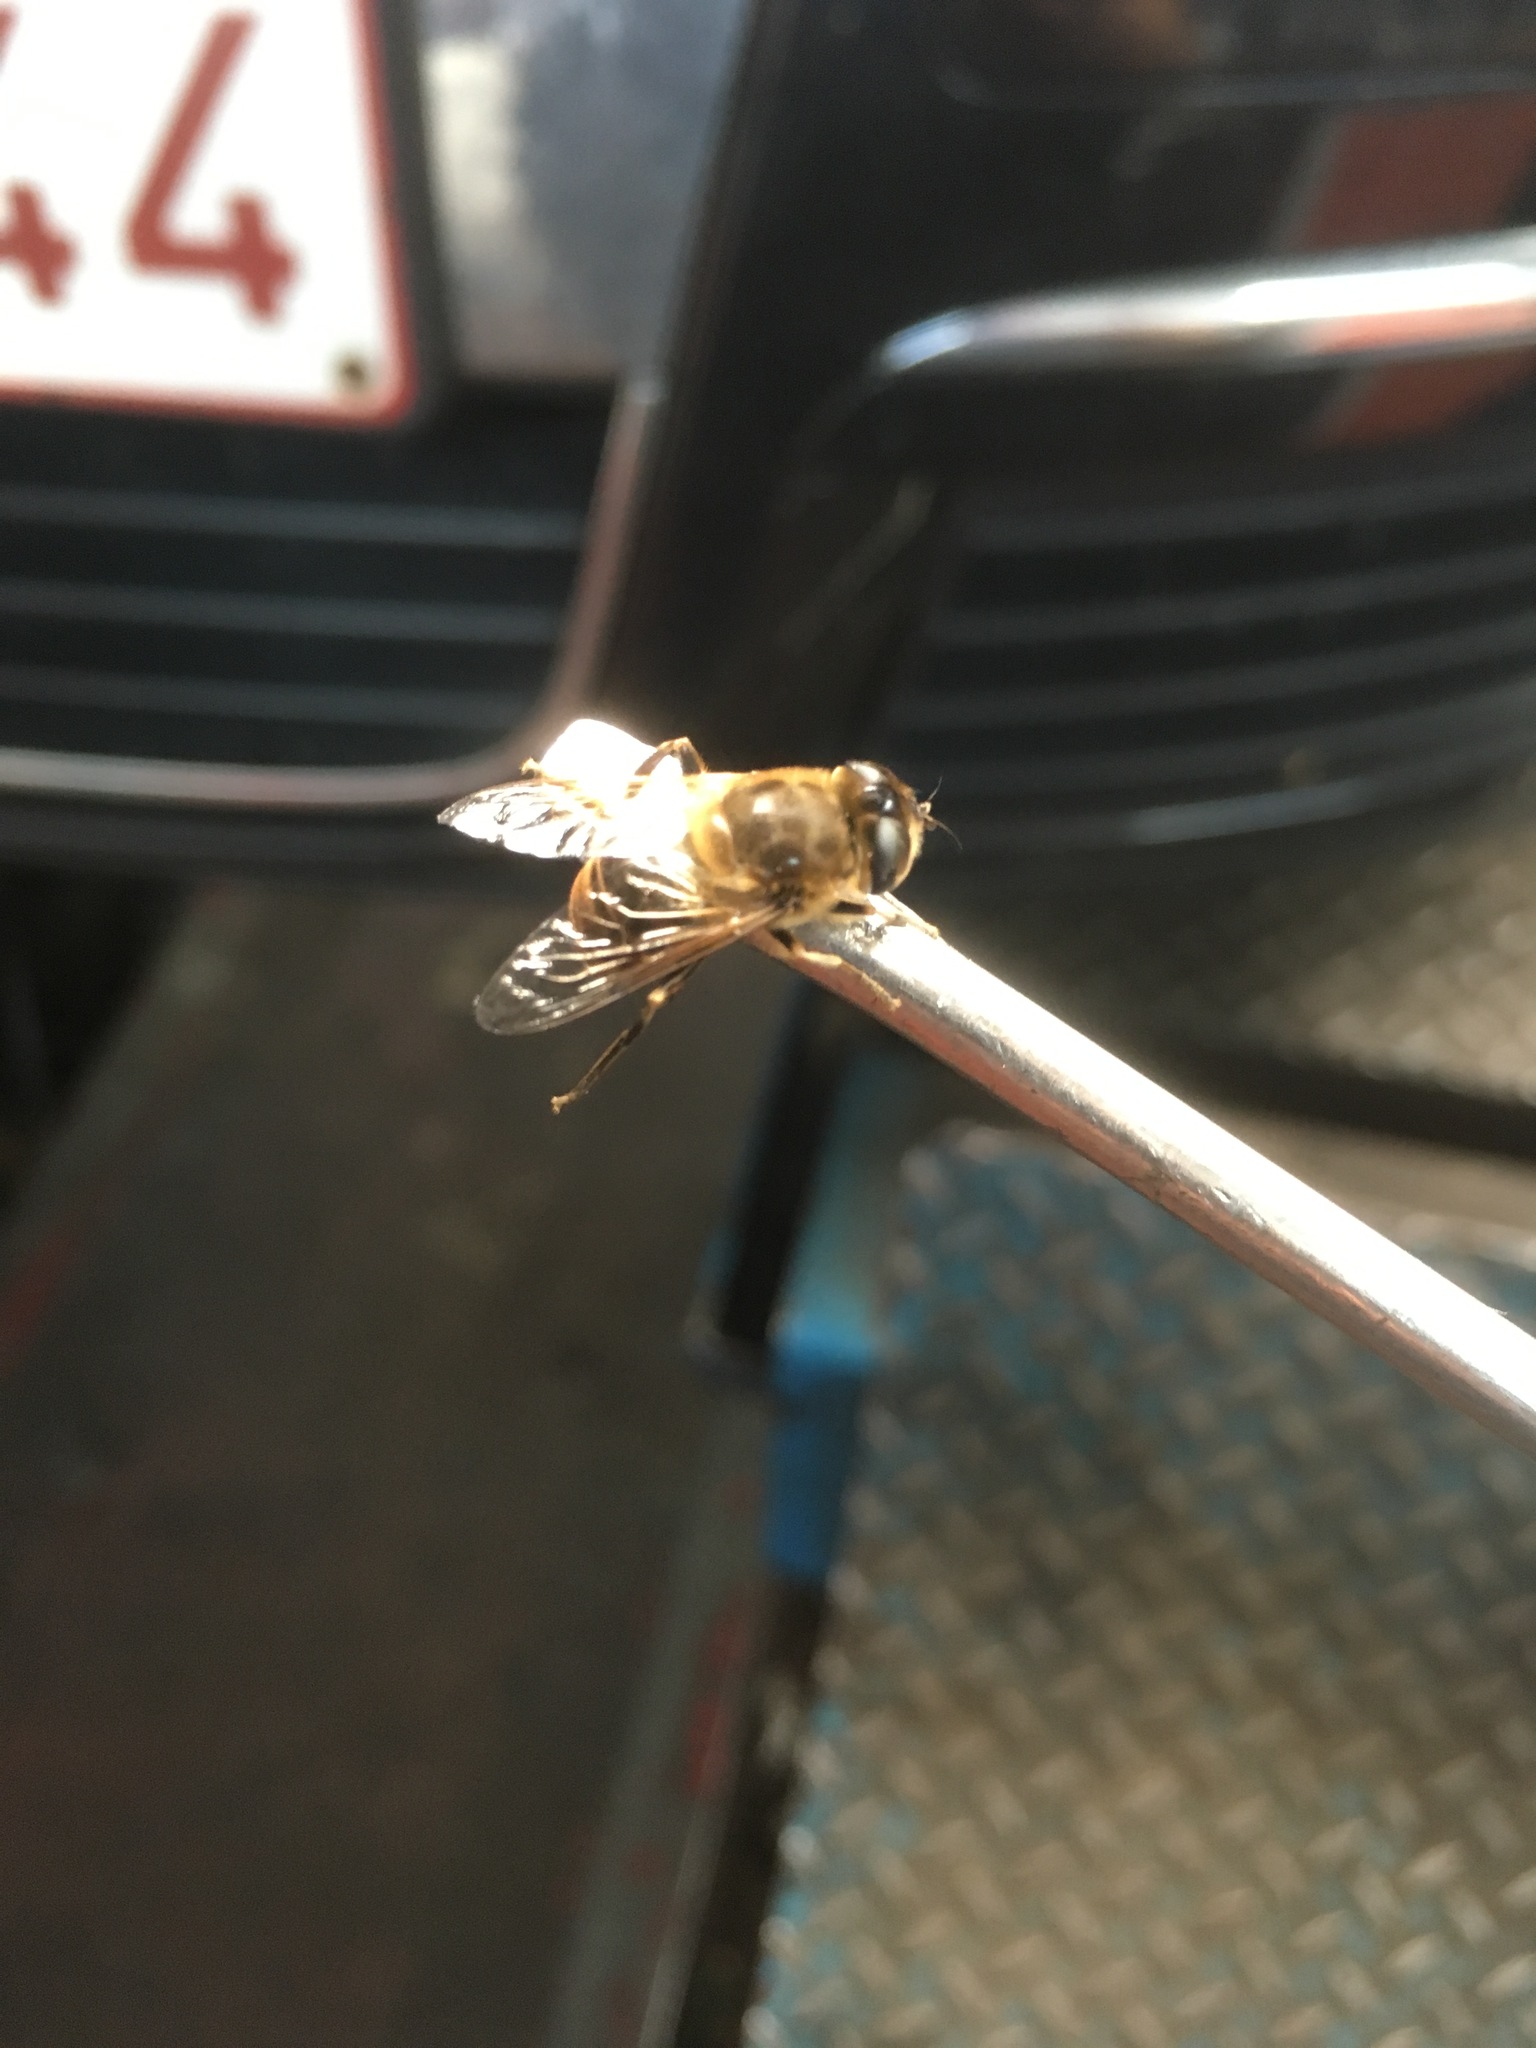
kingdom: Animalia
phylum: Arthropoda
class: Insecta
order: Diptera
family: Syrphidae
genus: Eristalis
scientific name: Eristalis tenax
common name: Drone fly
